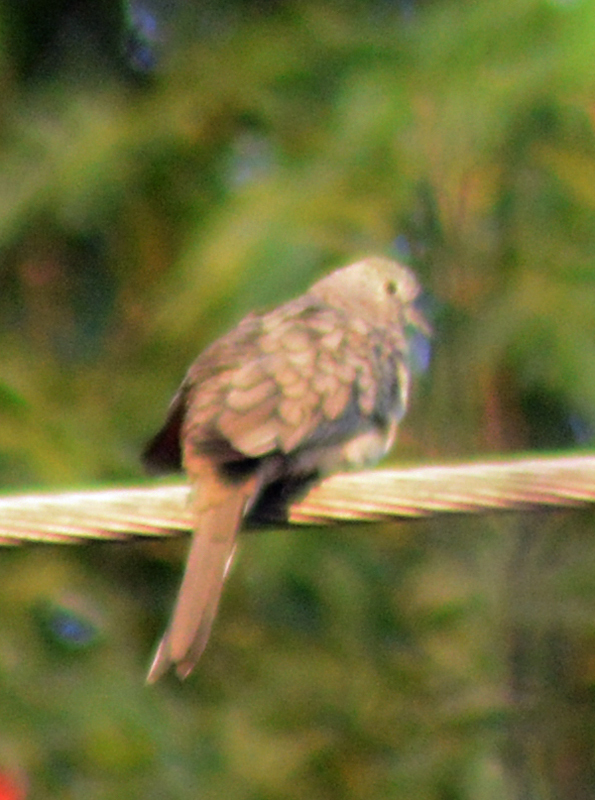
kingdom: Animalia
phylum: Chordata
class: Aves
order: Columbiformes
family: Columbidae
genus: Columbina
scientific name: Columbina inca
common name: Inca dove
